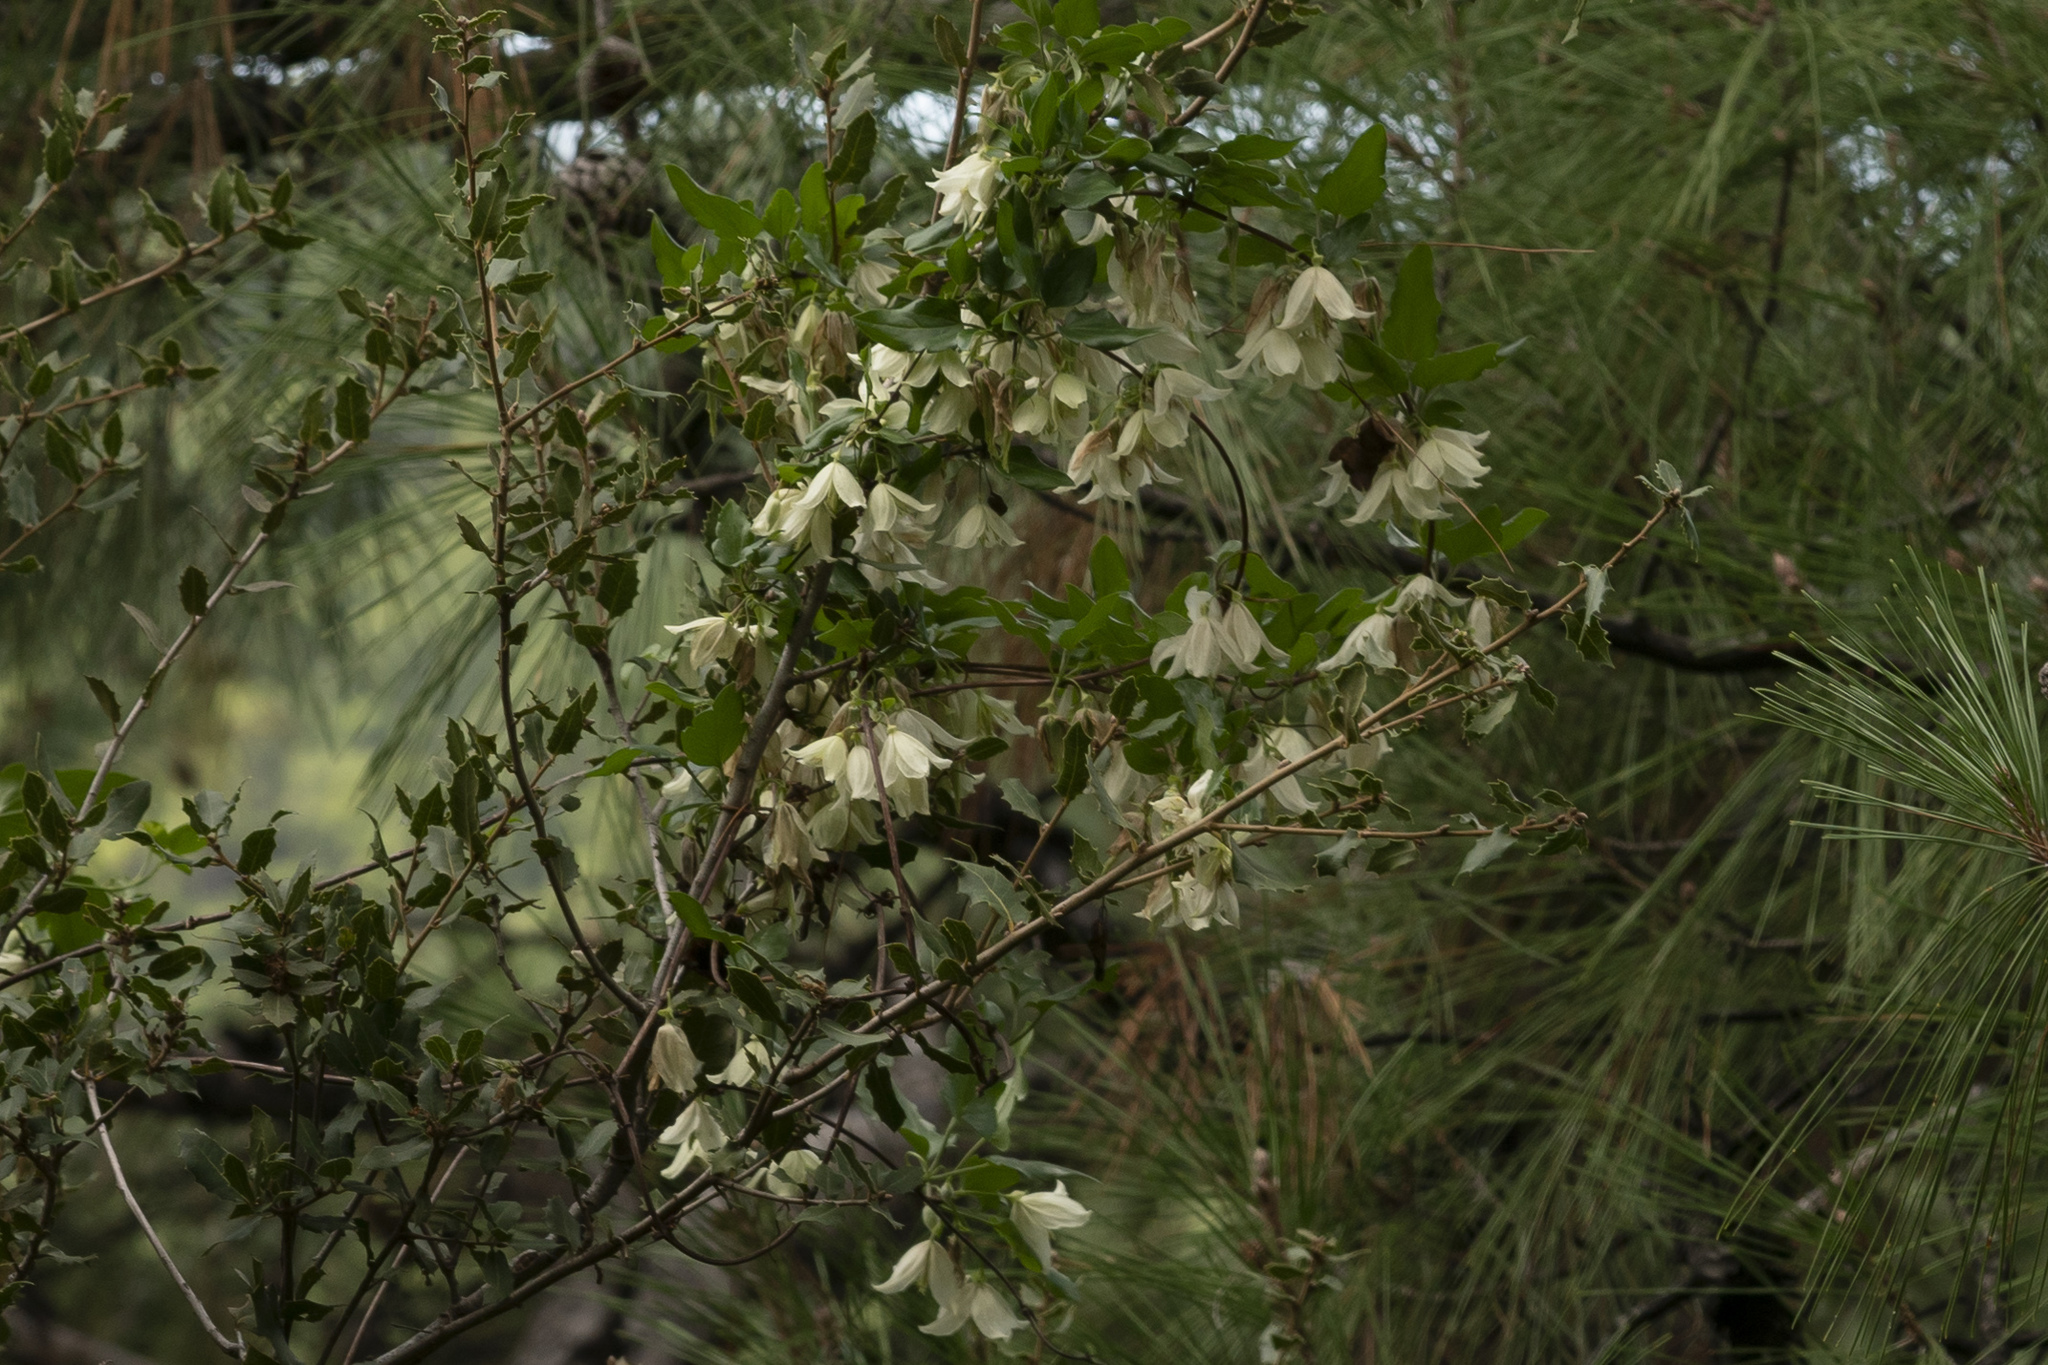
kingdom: Plantae
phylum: Tracheophyta
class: Magnoliopsida
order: Ranunculales
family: Ranunculaceae
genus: Clematis
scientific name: Clematis cirrhosa
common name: Early virgin's-bower
